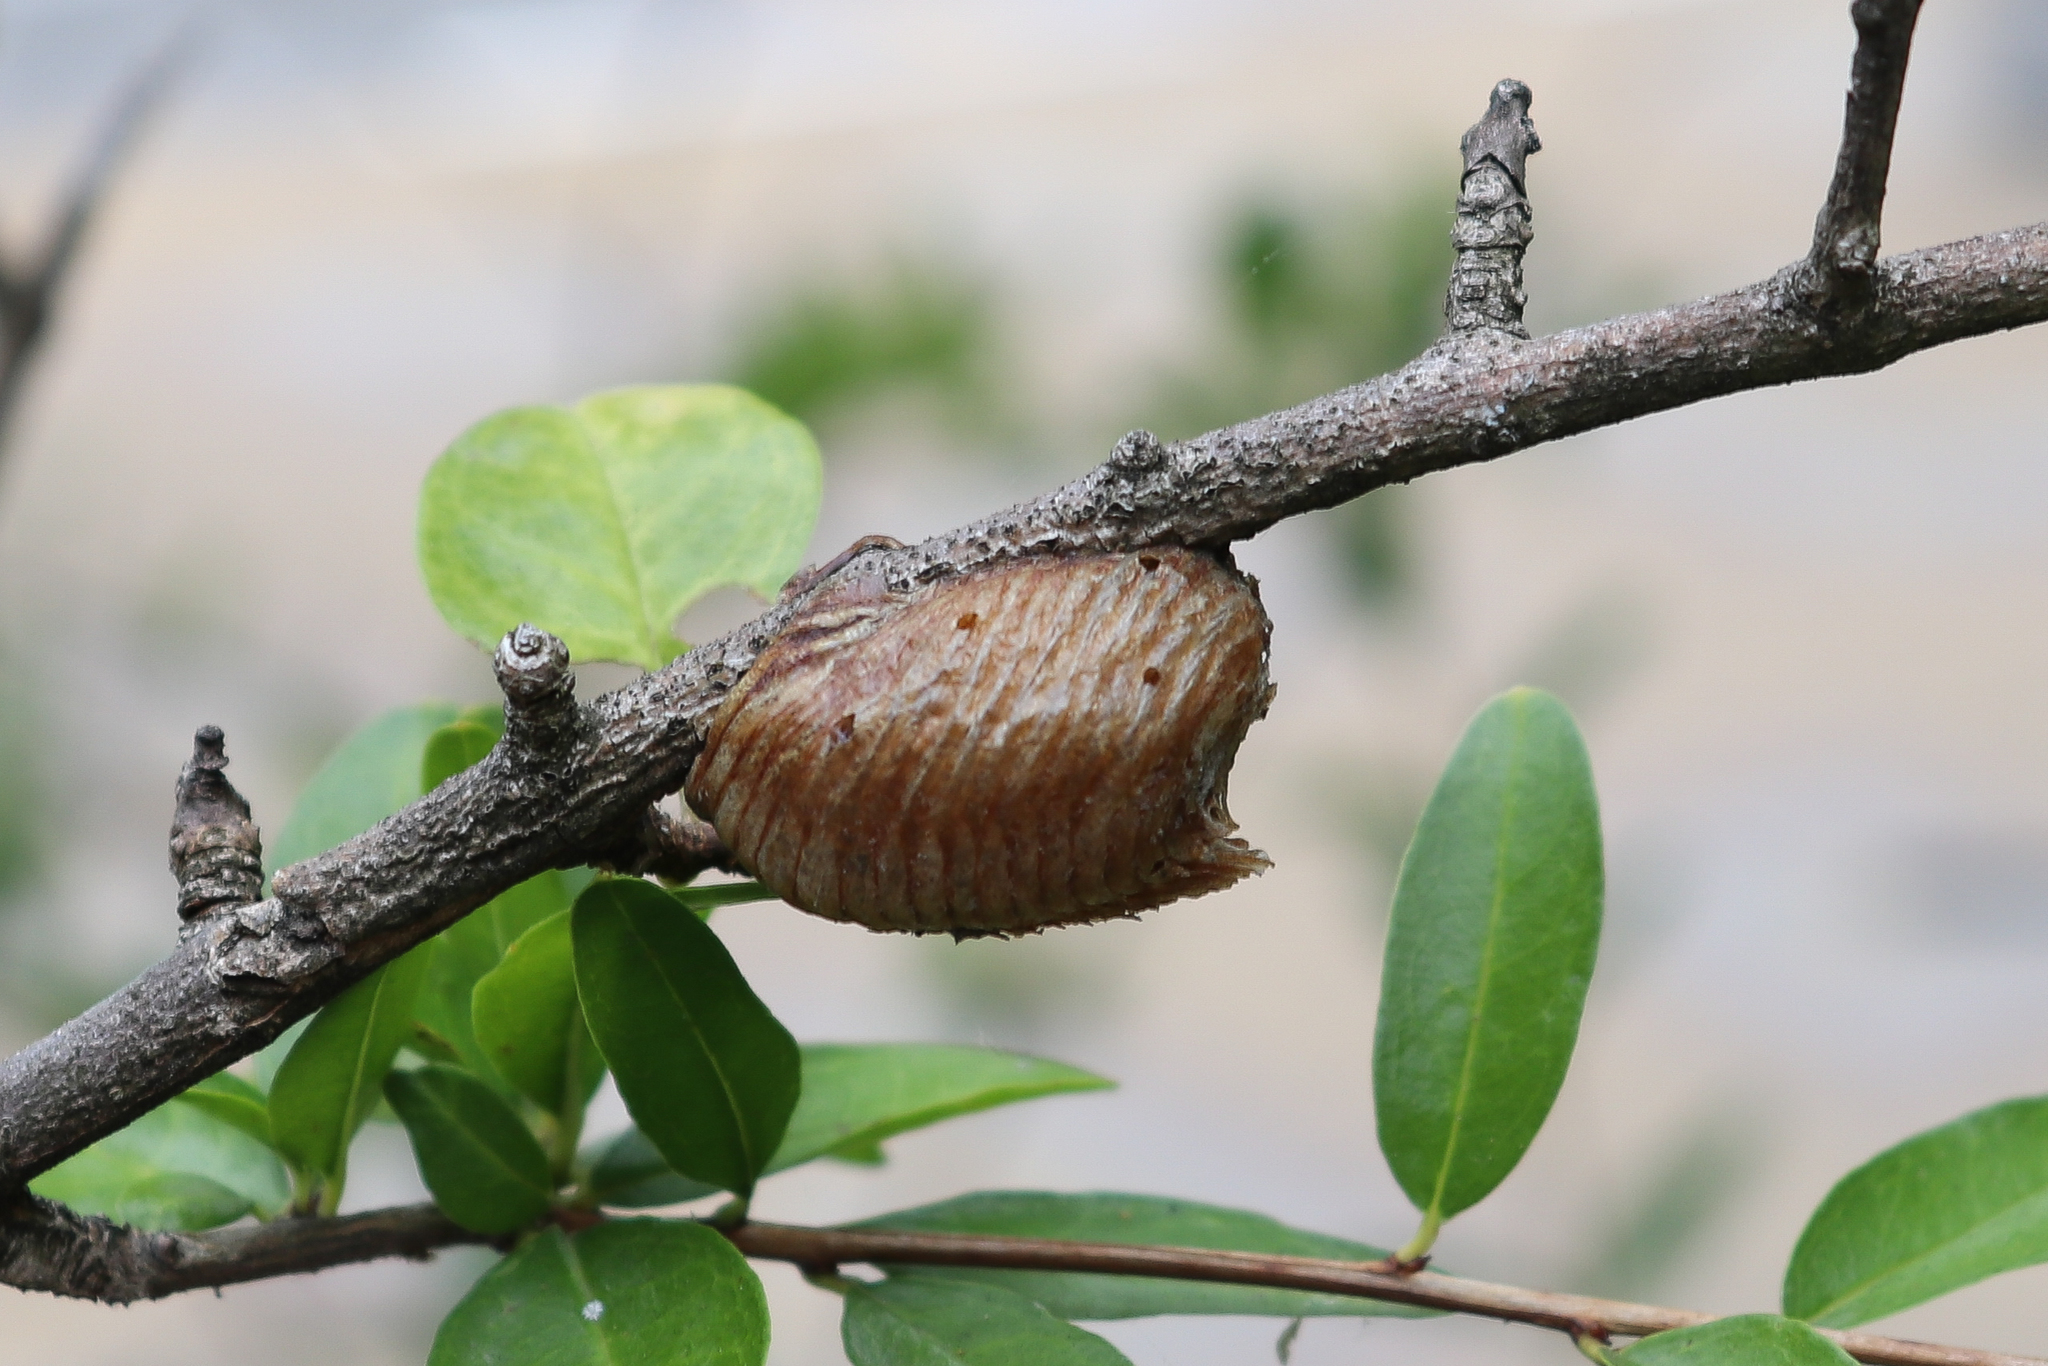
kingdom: Animalia
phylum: Arthropoda
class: Insecta
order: Mantodea
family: Mantidae
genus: Hierodula
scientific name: Hierodula transcaucasica
